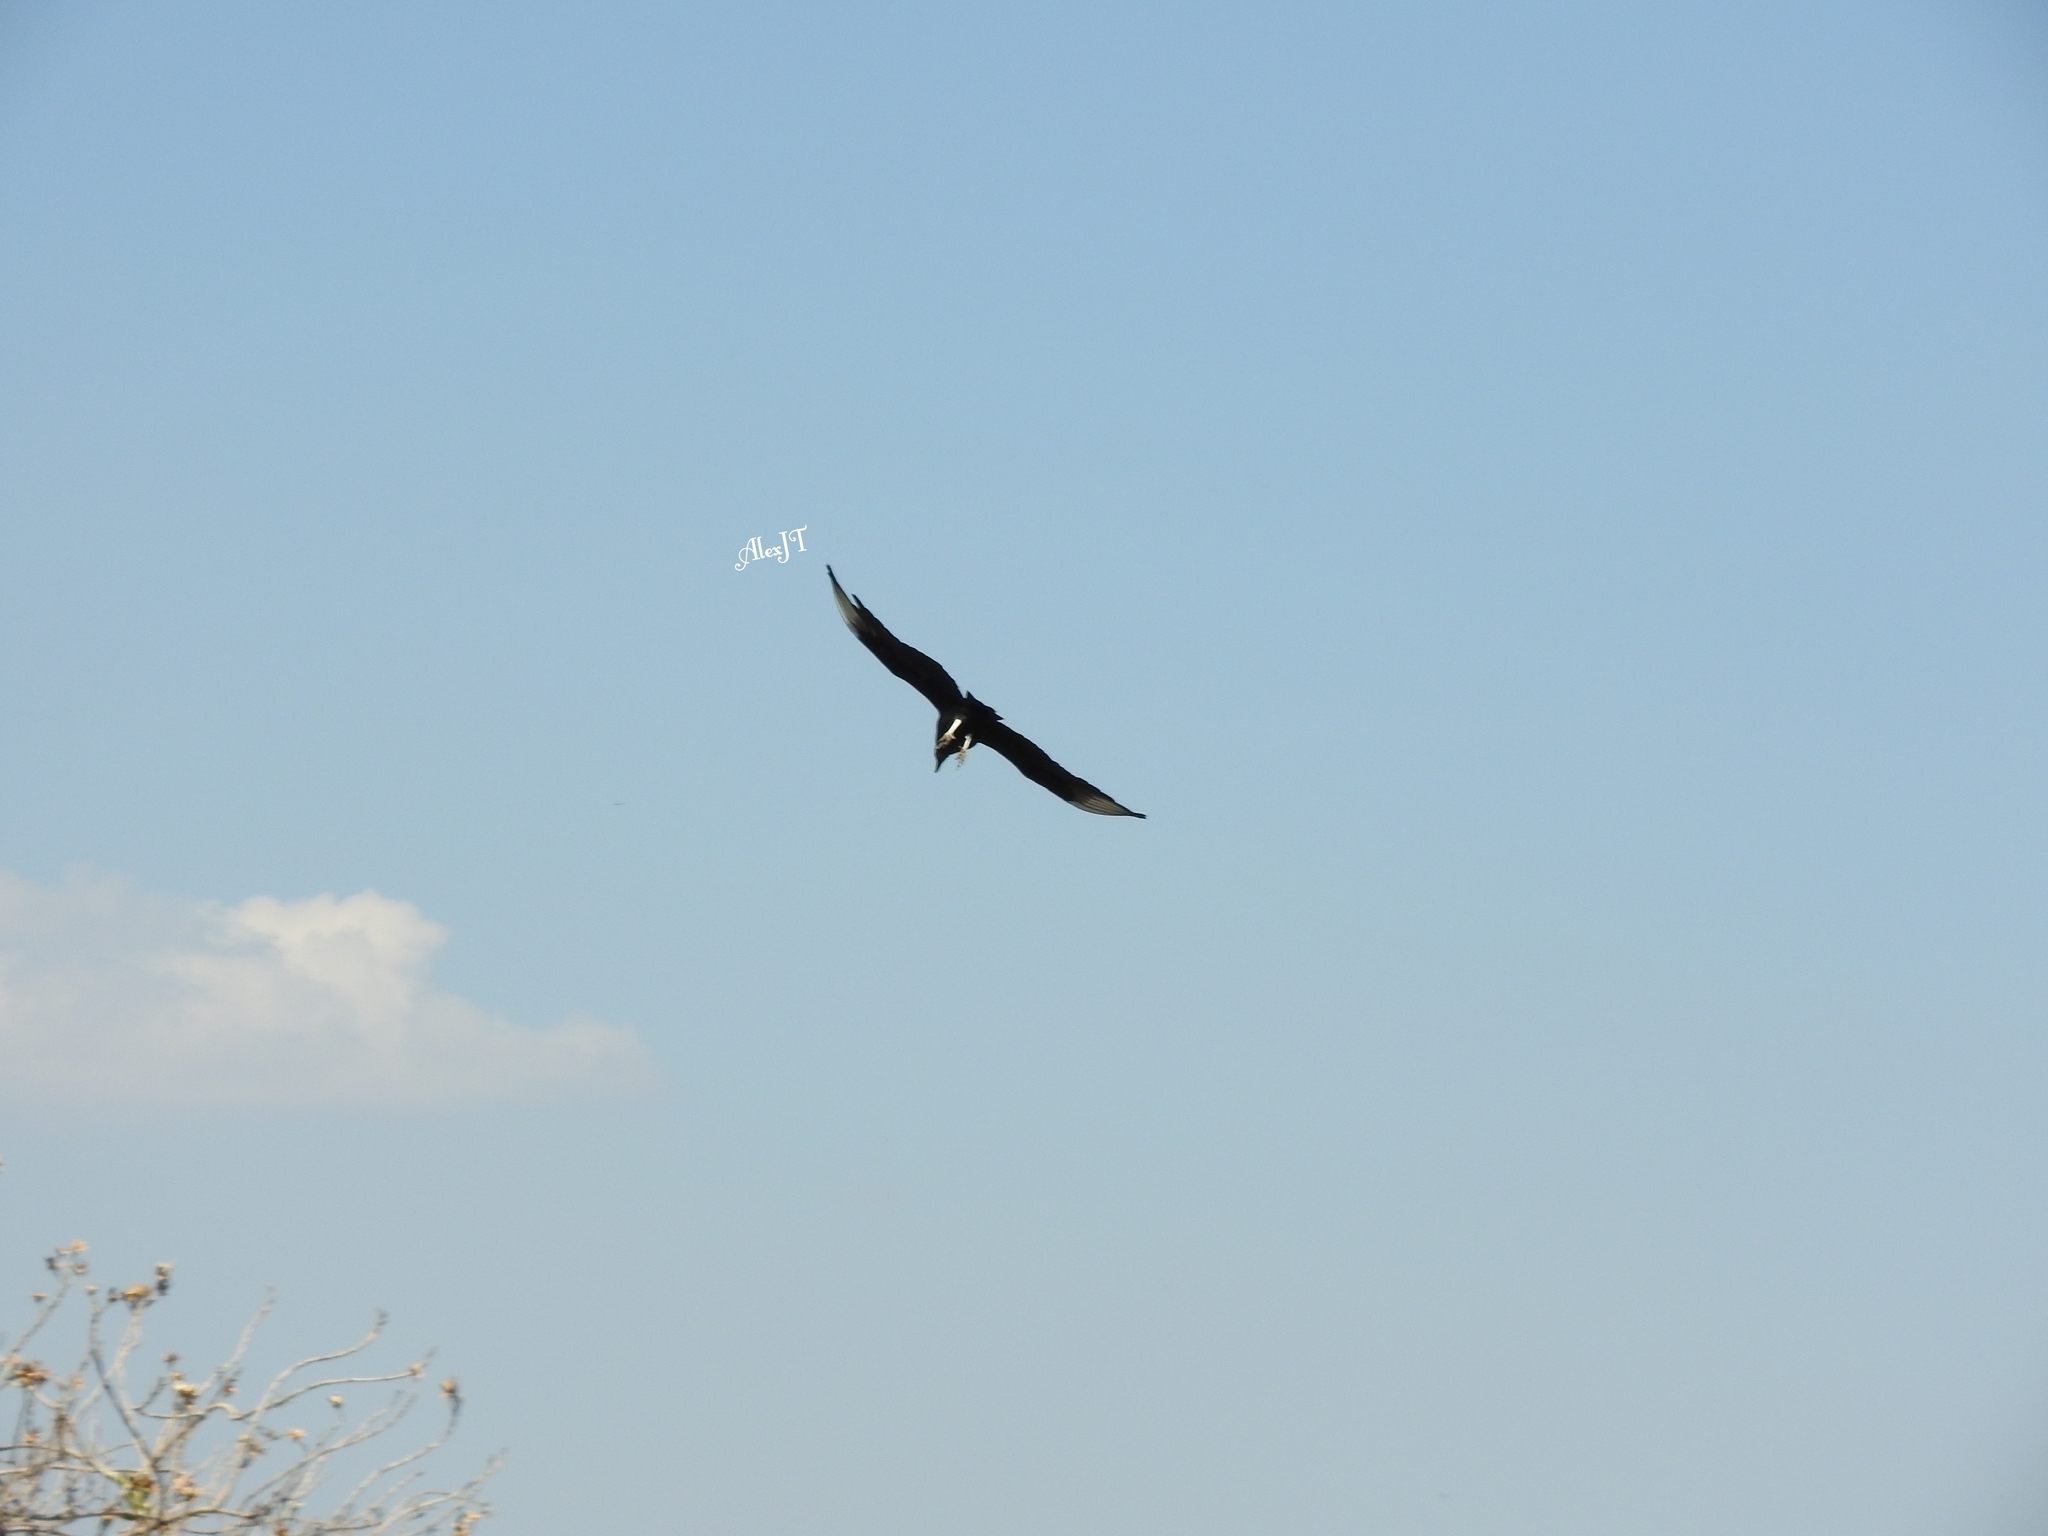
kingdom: Animalia
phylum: Chordata
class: Aves
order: Accipitriformes
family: Cathartidae
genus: Coragyps
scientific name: Coragyps atratus
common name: Black vulture
